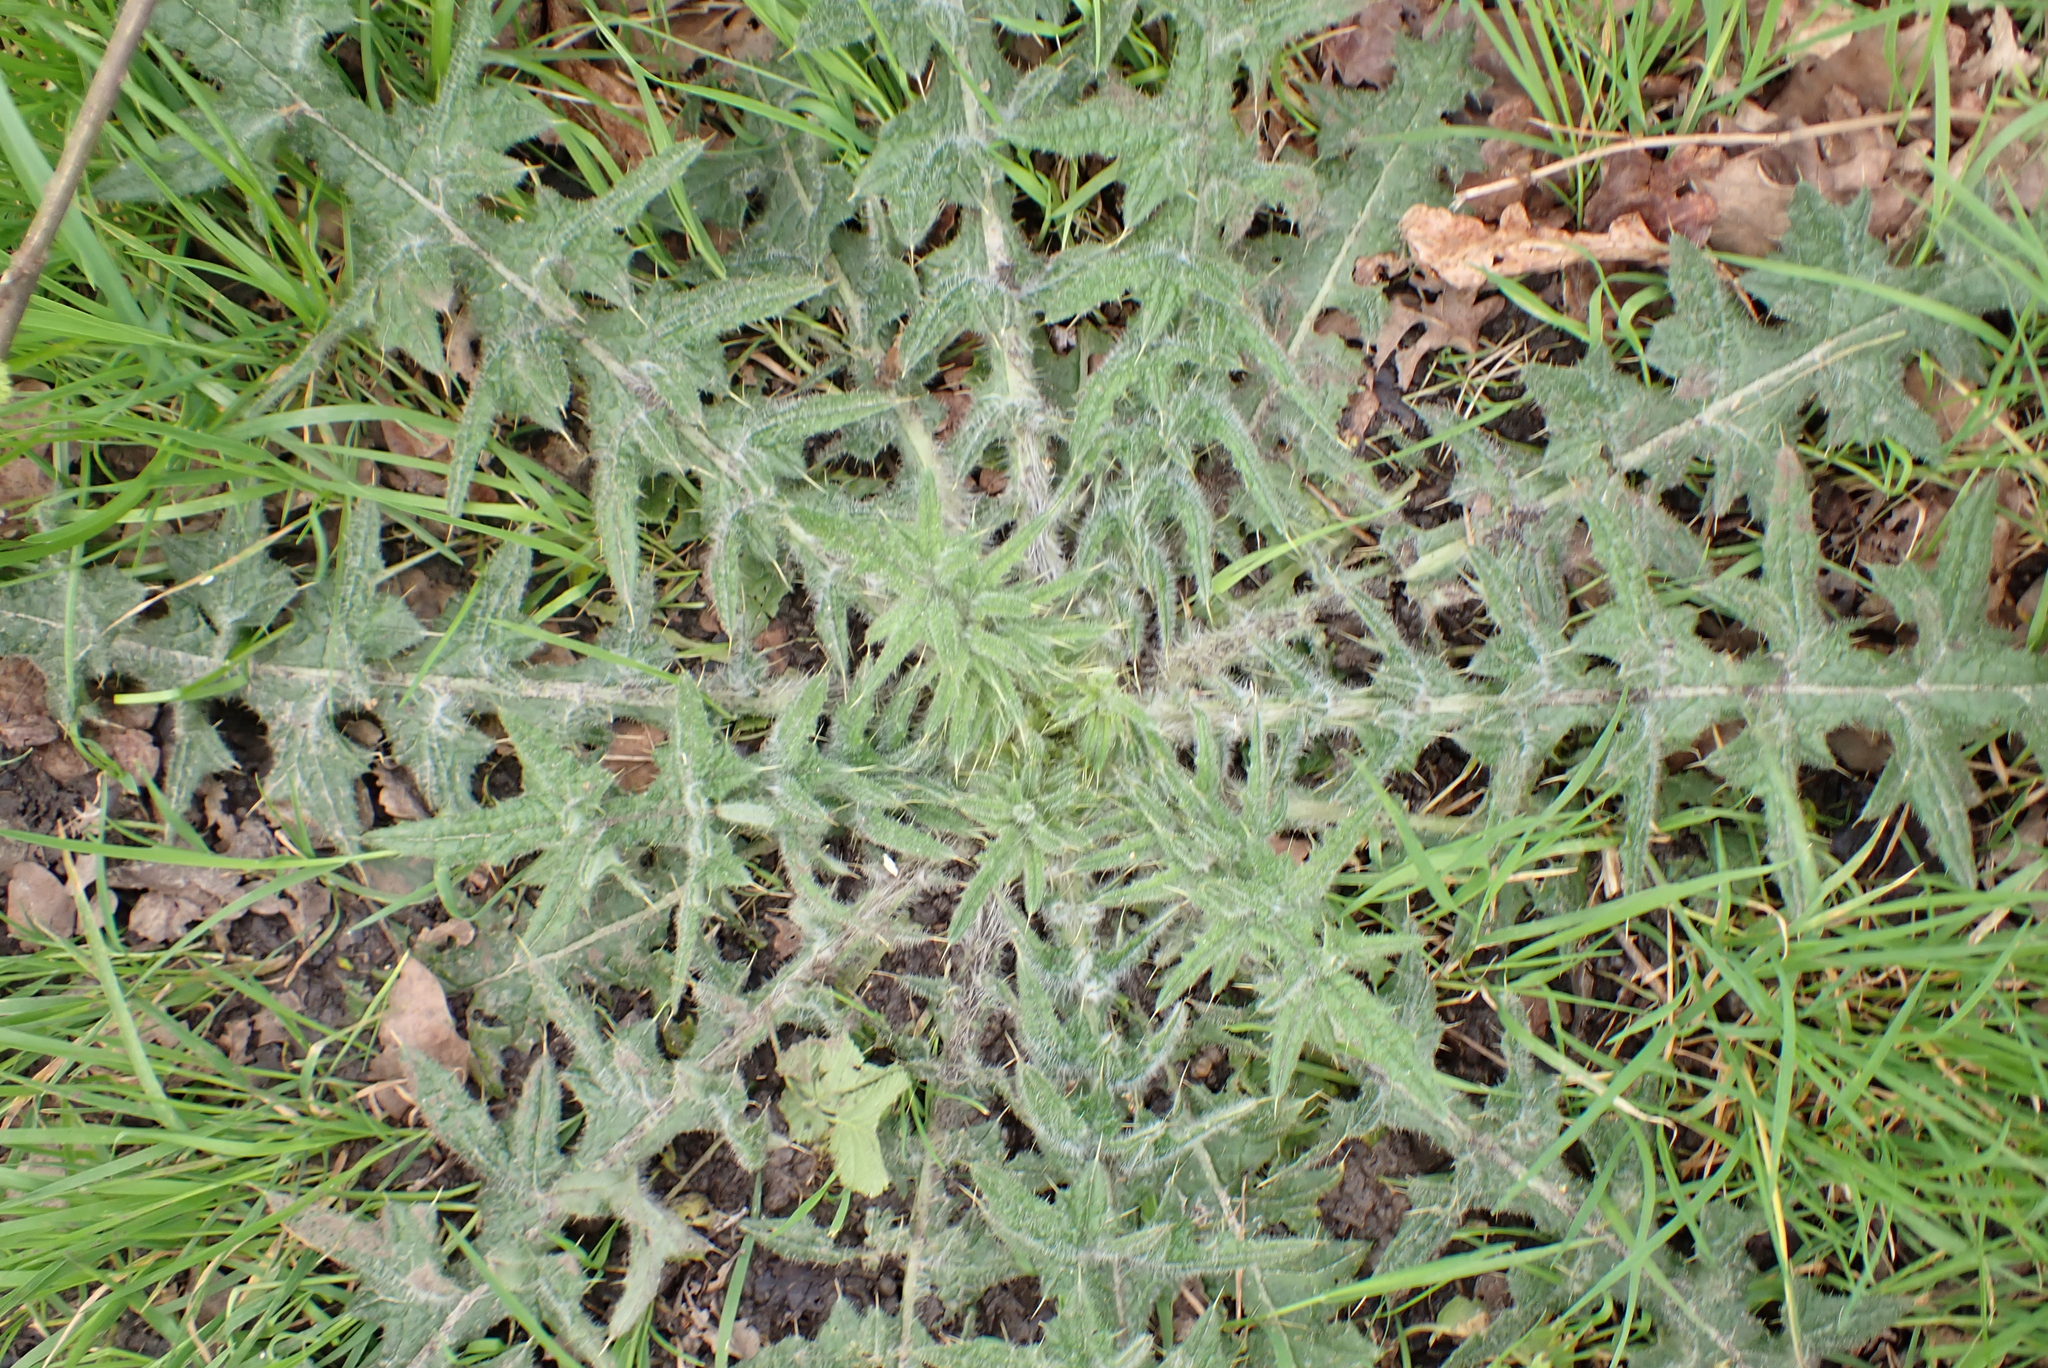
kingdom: Plantae
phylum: Tracheophyta
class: Magnoliopsida
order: Asterales
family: Asteraceae
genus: Cirsium
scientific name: Cirsium vulgare
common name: Bull thistle
